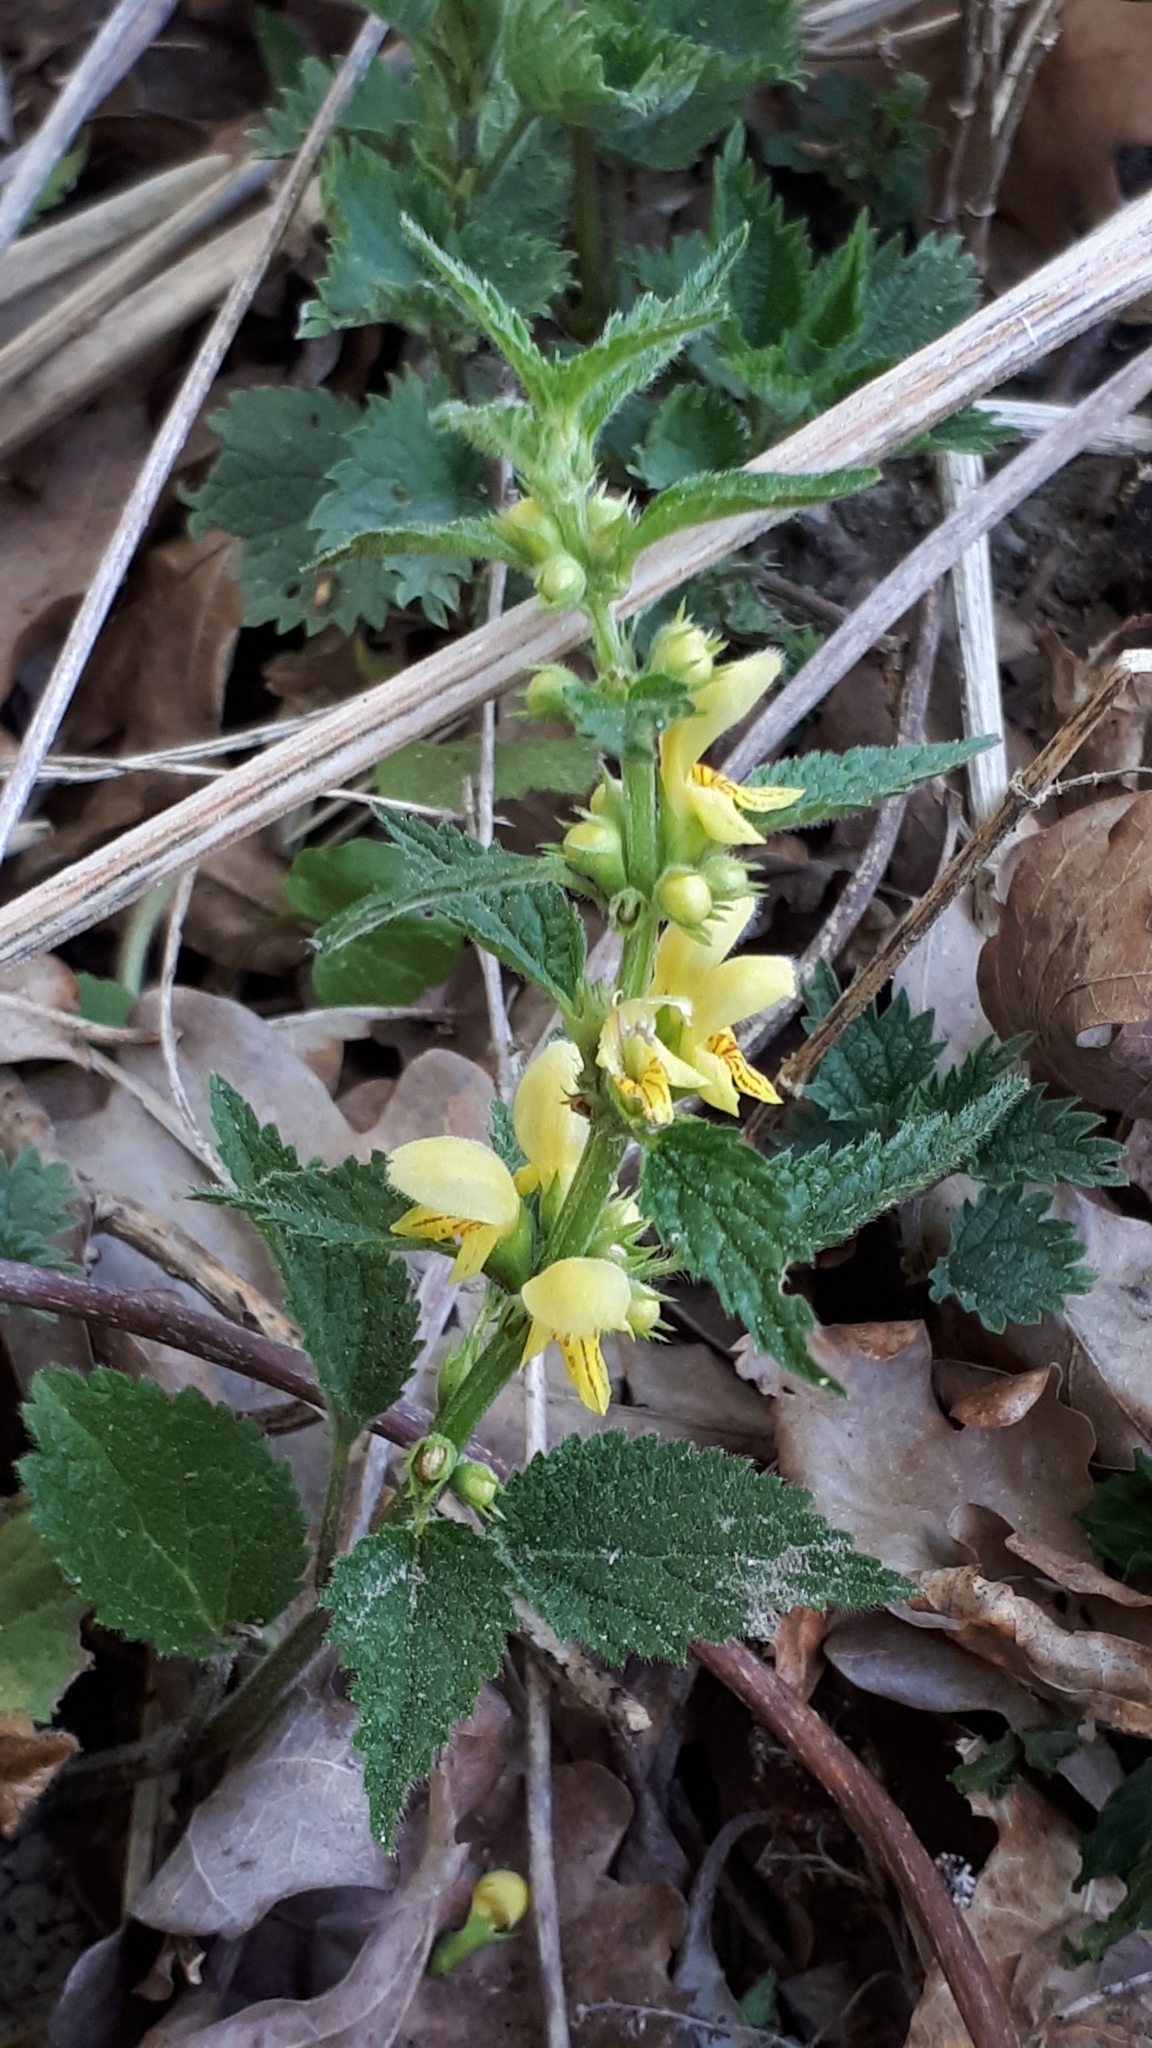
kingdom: Plantae
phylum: Tracheophyta
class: Magnoliopsida
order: Lamiales
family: Lamiaceae
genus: Lamium
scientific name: Lamium galeobdolon
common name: Yellow archangel
